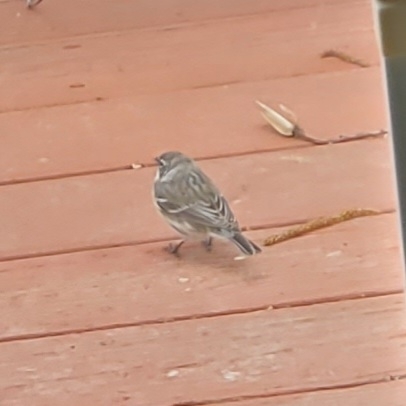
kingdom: Animalia
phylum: Chordata
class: Aves
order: Passeriformes
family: Parulidae
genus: Setophaga
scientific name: Setophaga coronata
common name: Myrtle warbler
